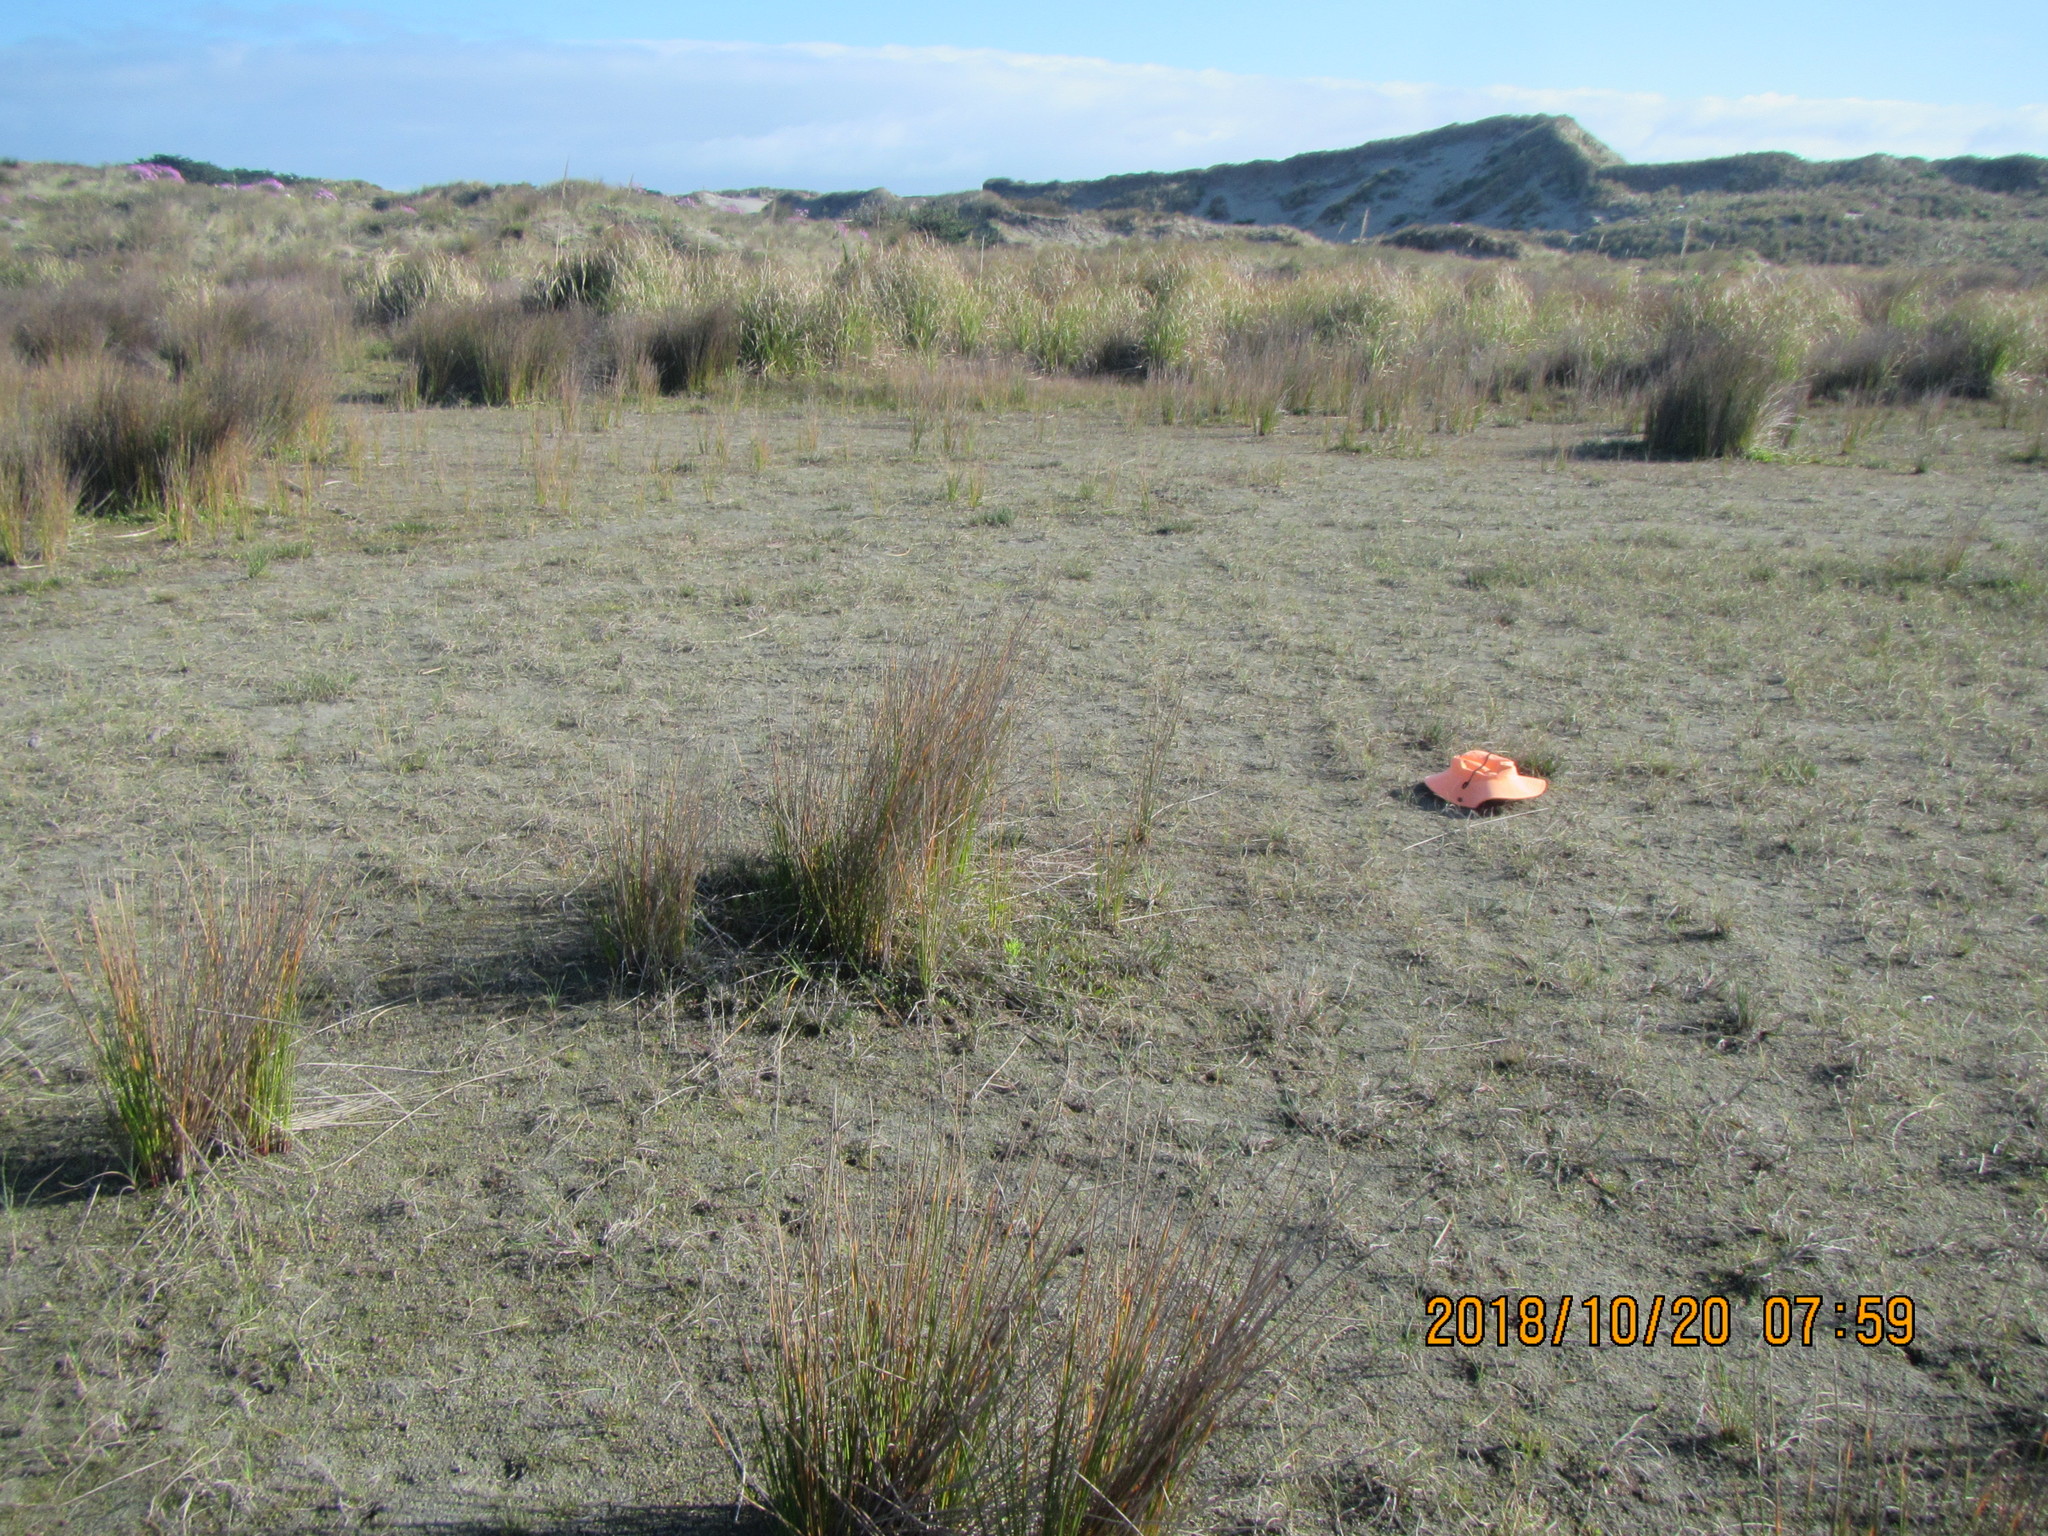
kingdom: Plantae
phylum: Tracheophyta
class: Liliopsida
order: Poales
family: Juncaceae
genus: Juncus
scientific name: Juncus articulatus
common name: Jointed rush
